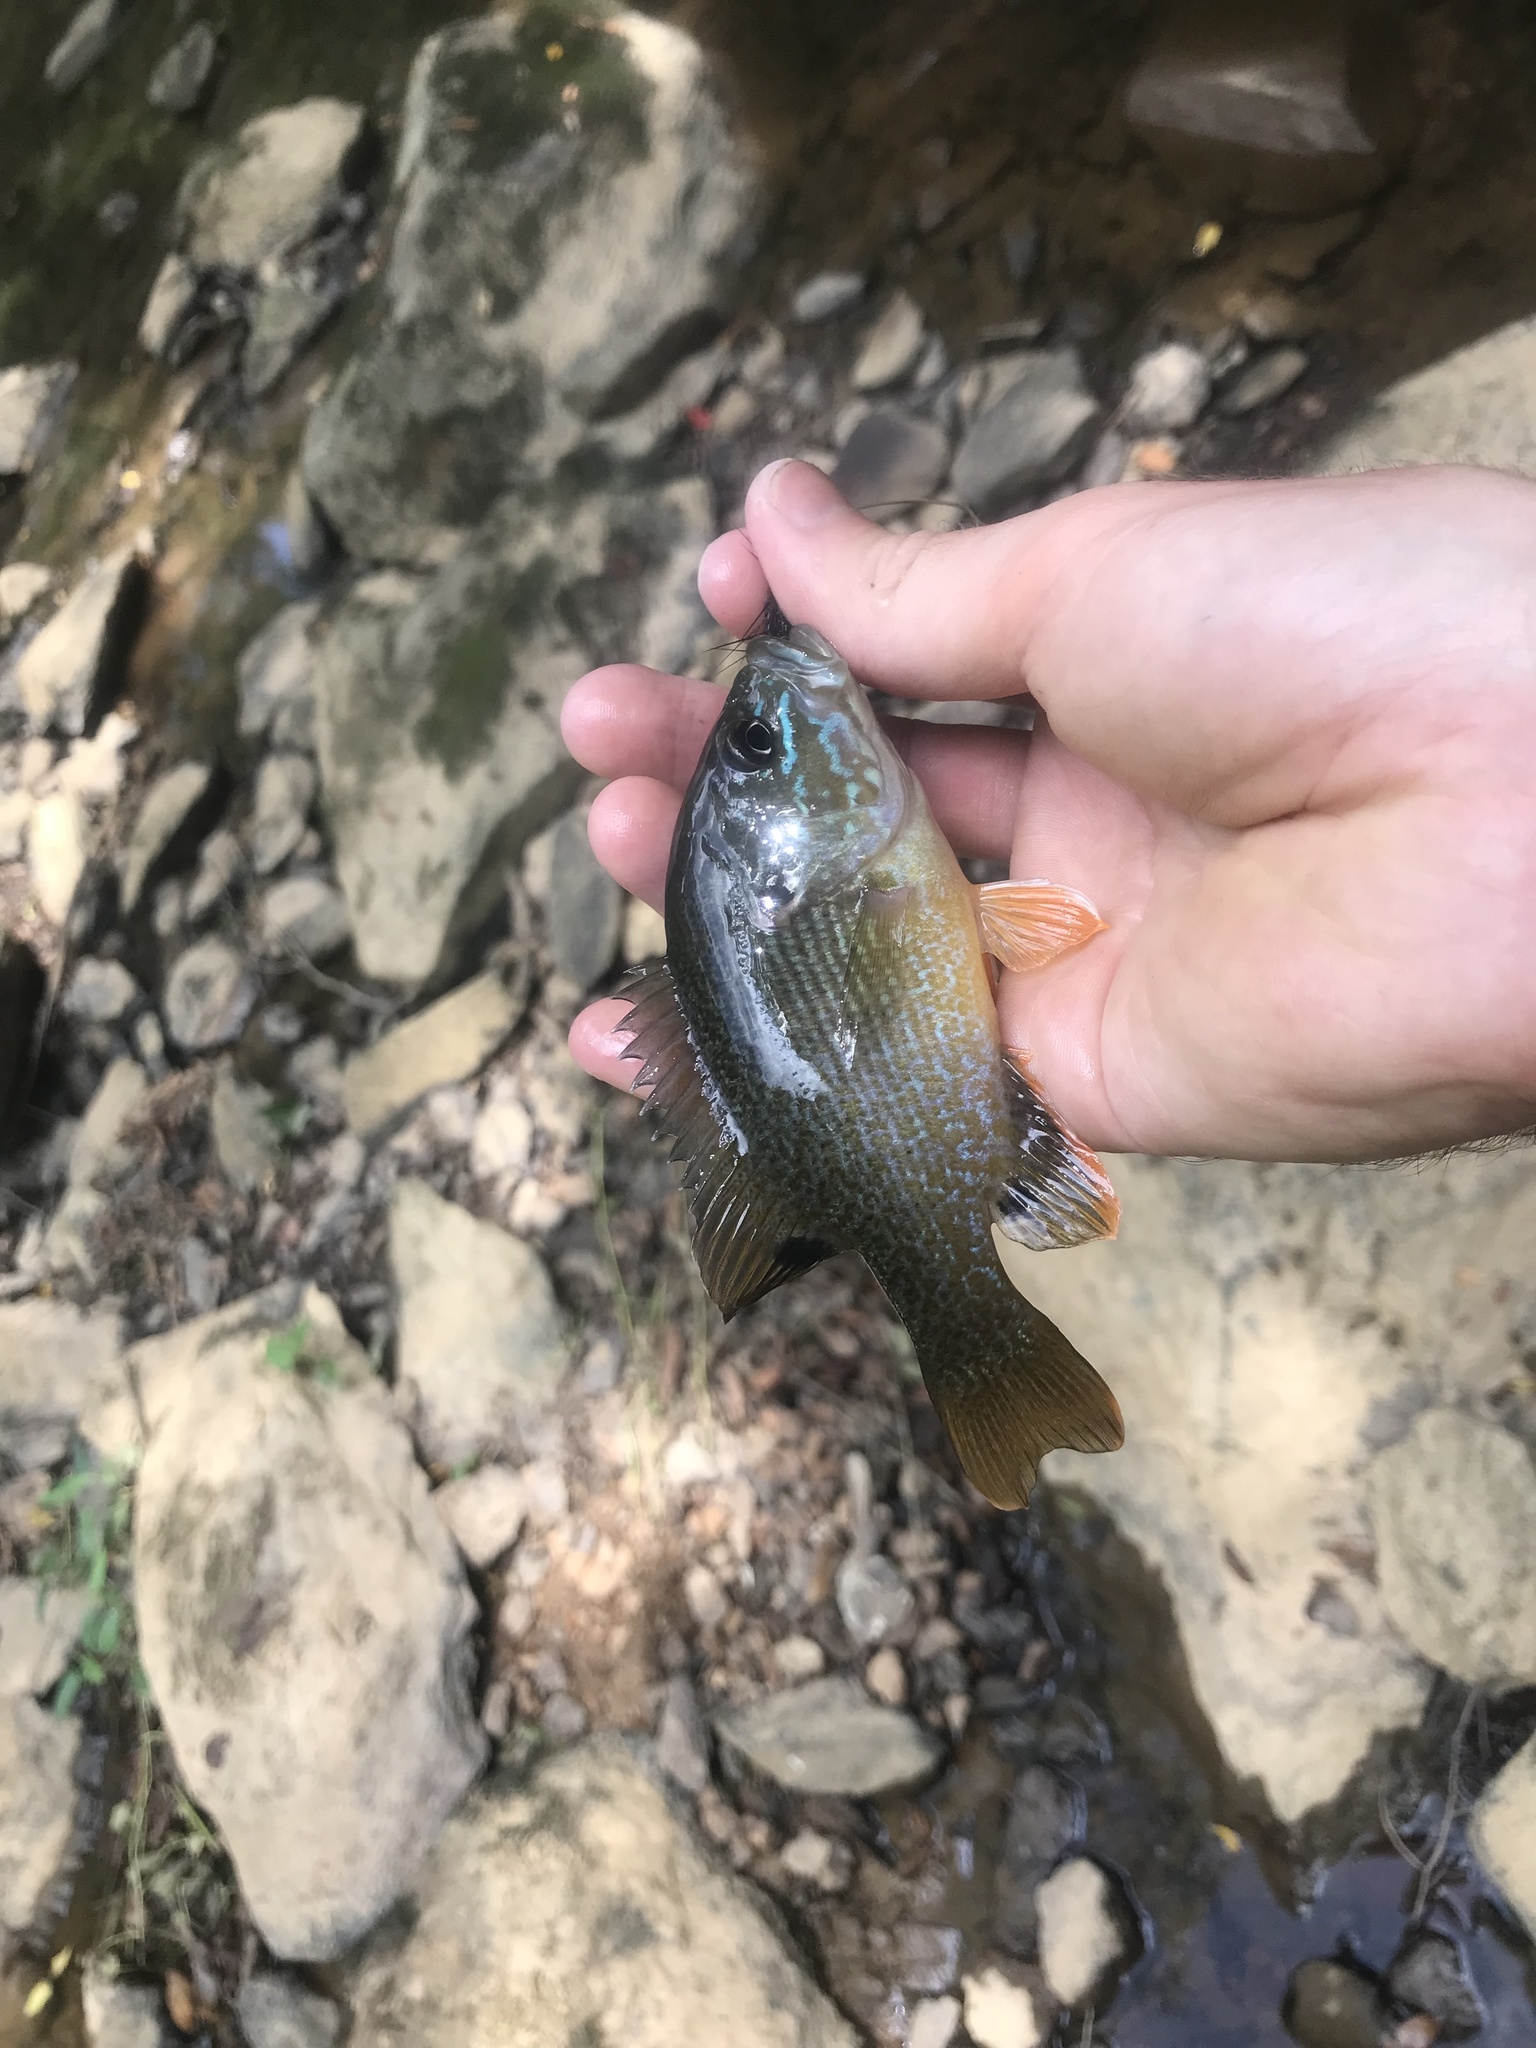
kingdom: Animalia
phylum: Chordata
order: Perciformes
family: Centrarchidae
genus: Lepomis
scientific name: Lepomis cyanellus
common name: Green sunfish
